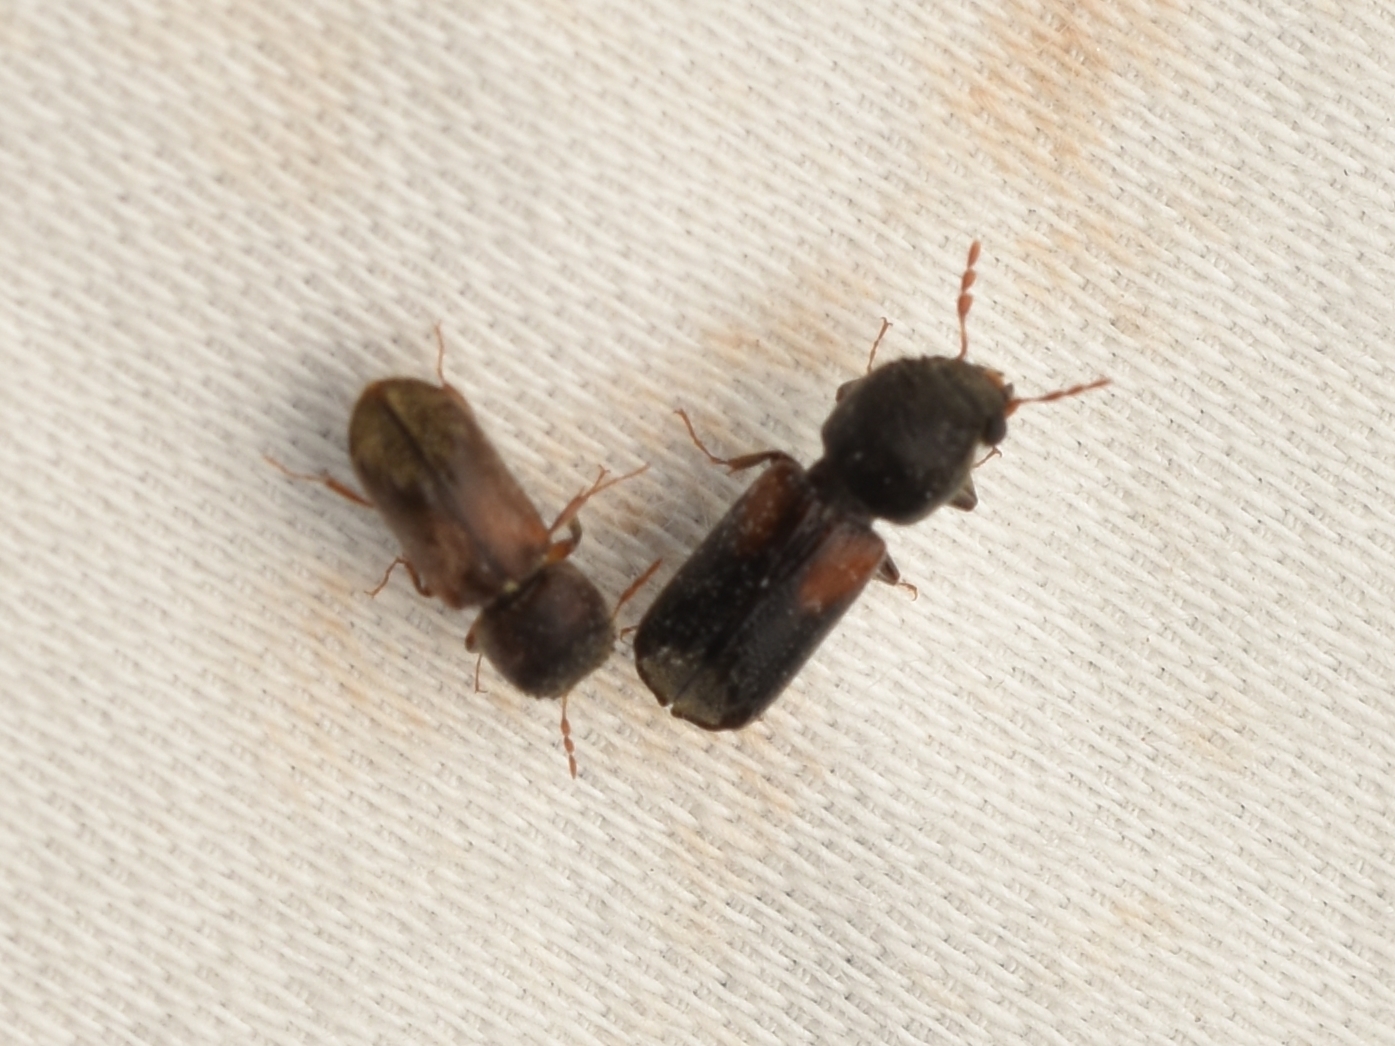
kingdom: Animalia
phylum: Arthropoda
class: Insecta
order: Coleoptera
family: Bostrichidae
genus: Xylobiops
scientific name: Xylobiops basilaris
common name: Red-shouldered bostrichid
